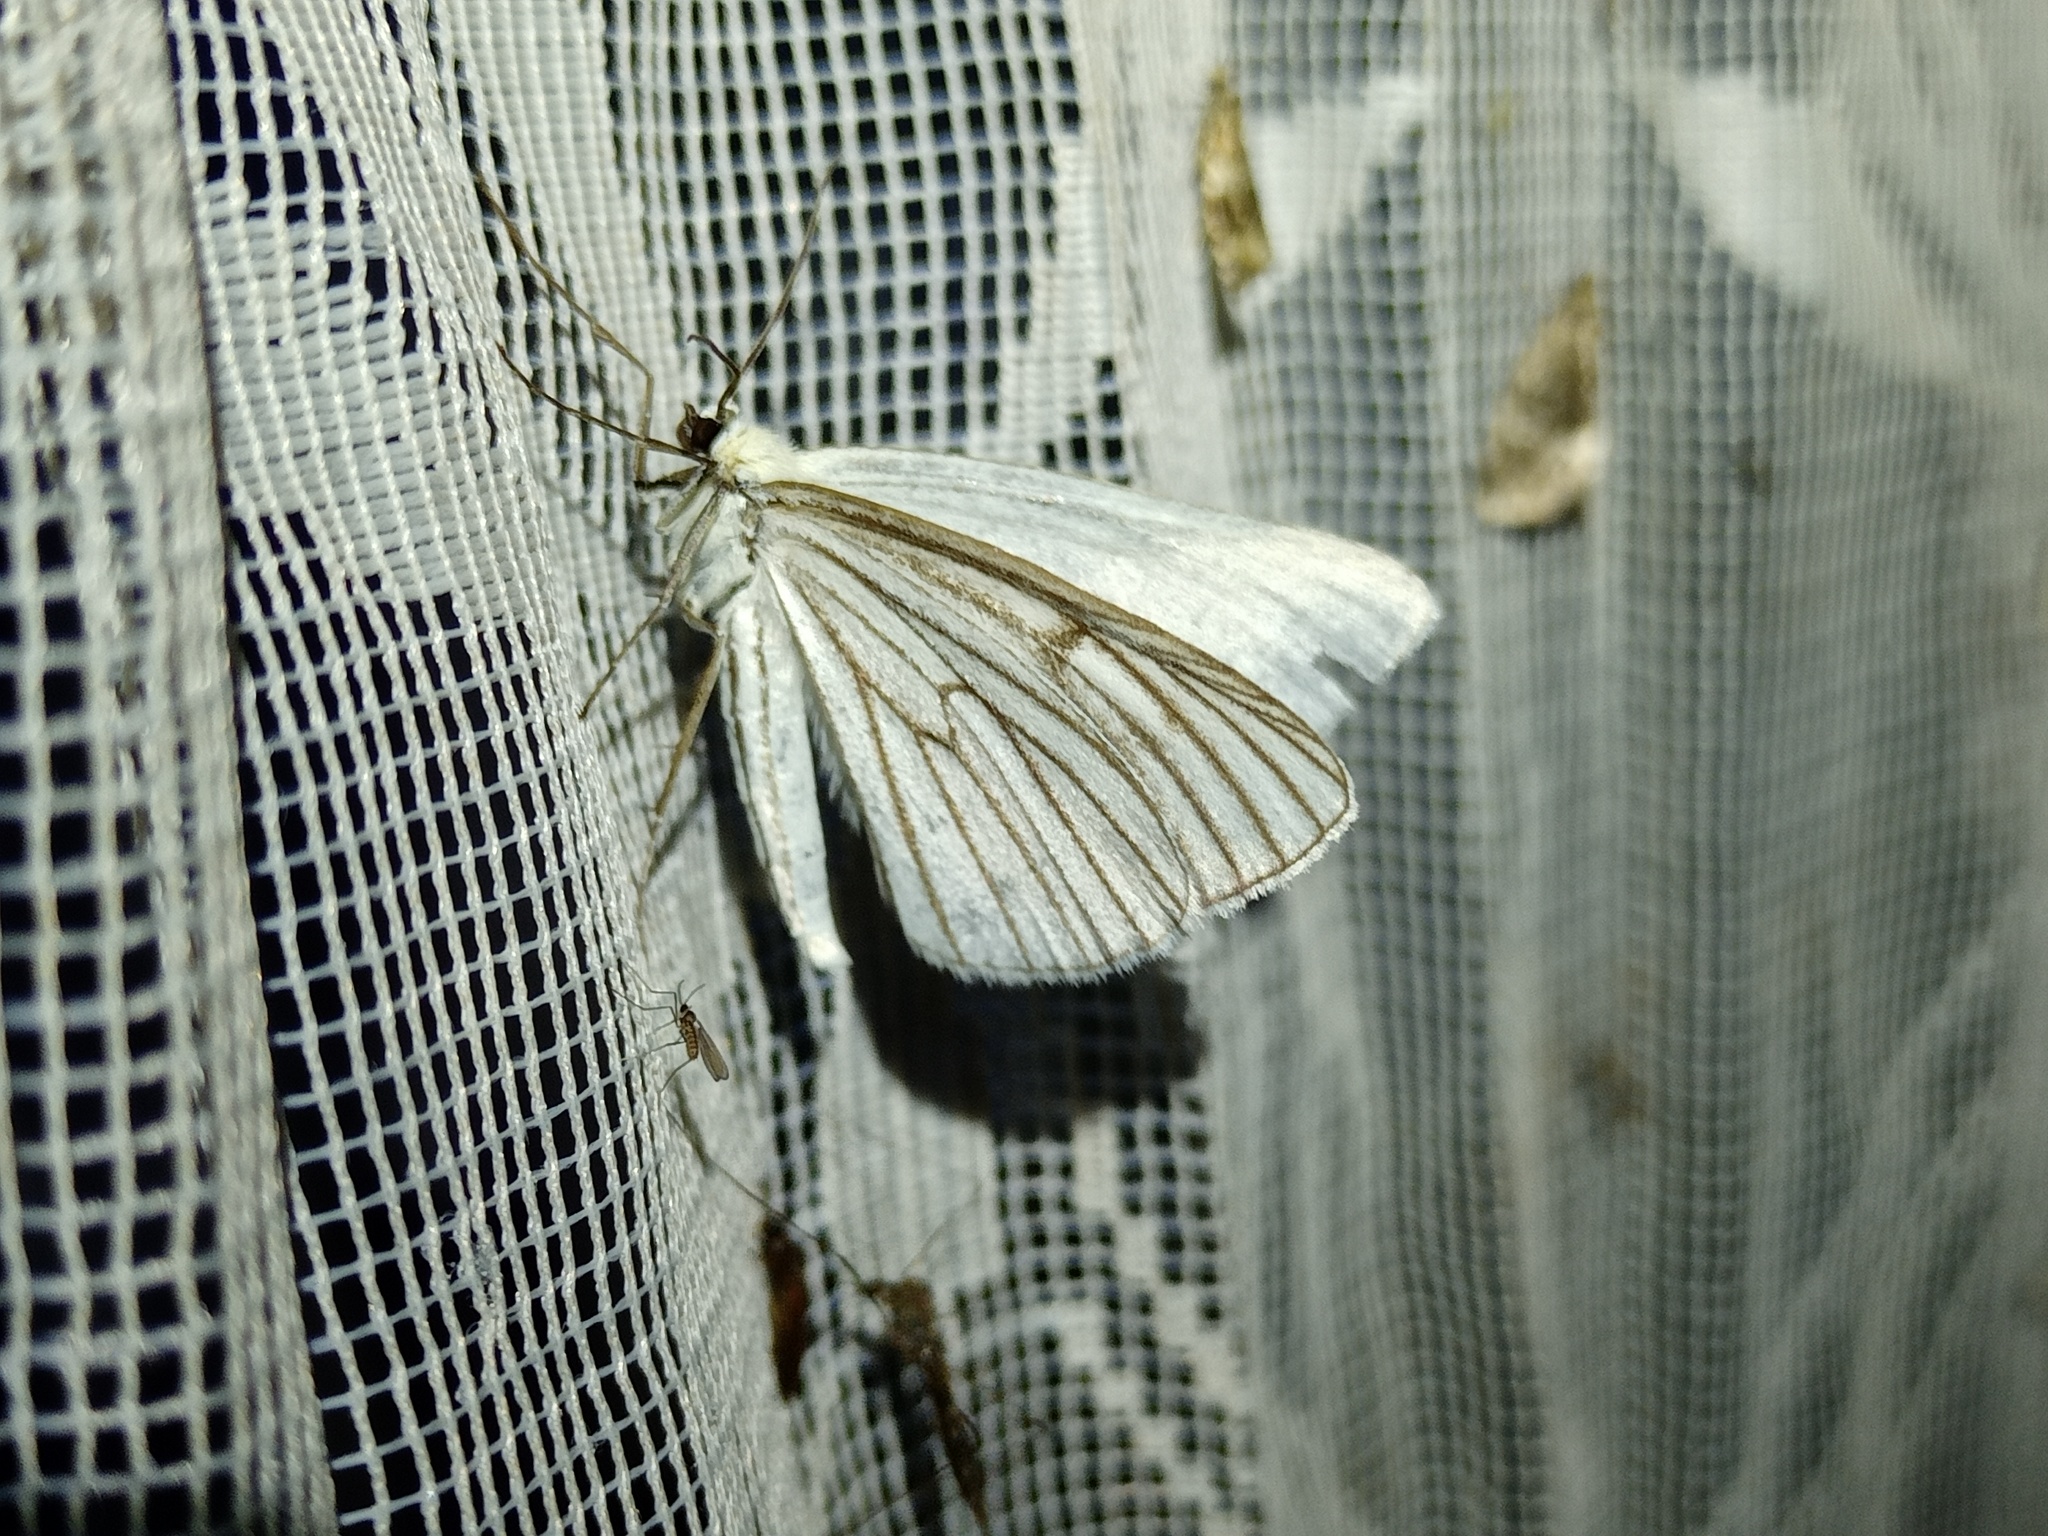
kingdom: Animalia
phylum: Arthropoda
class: Insecta
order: Lepidoptera
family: Geometridae
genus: Siona
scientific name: Siona lineata
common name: Black-veined moth
